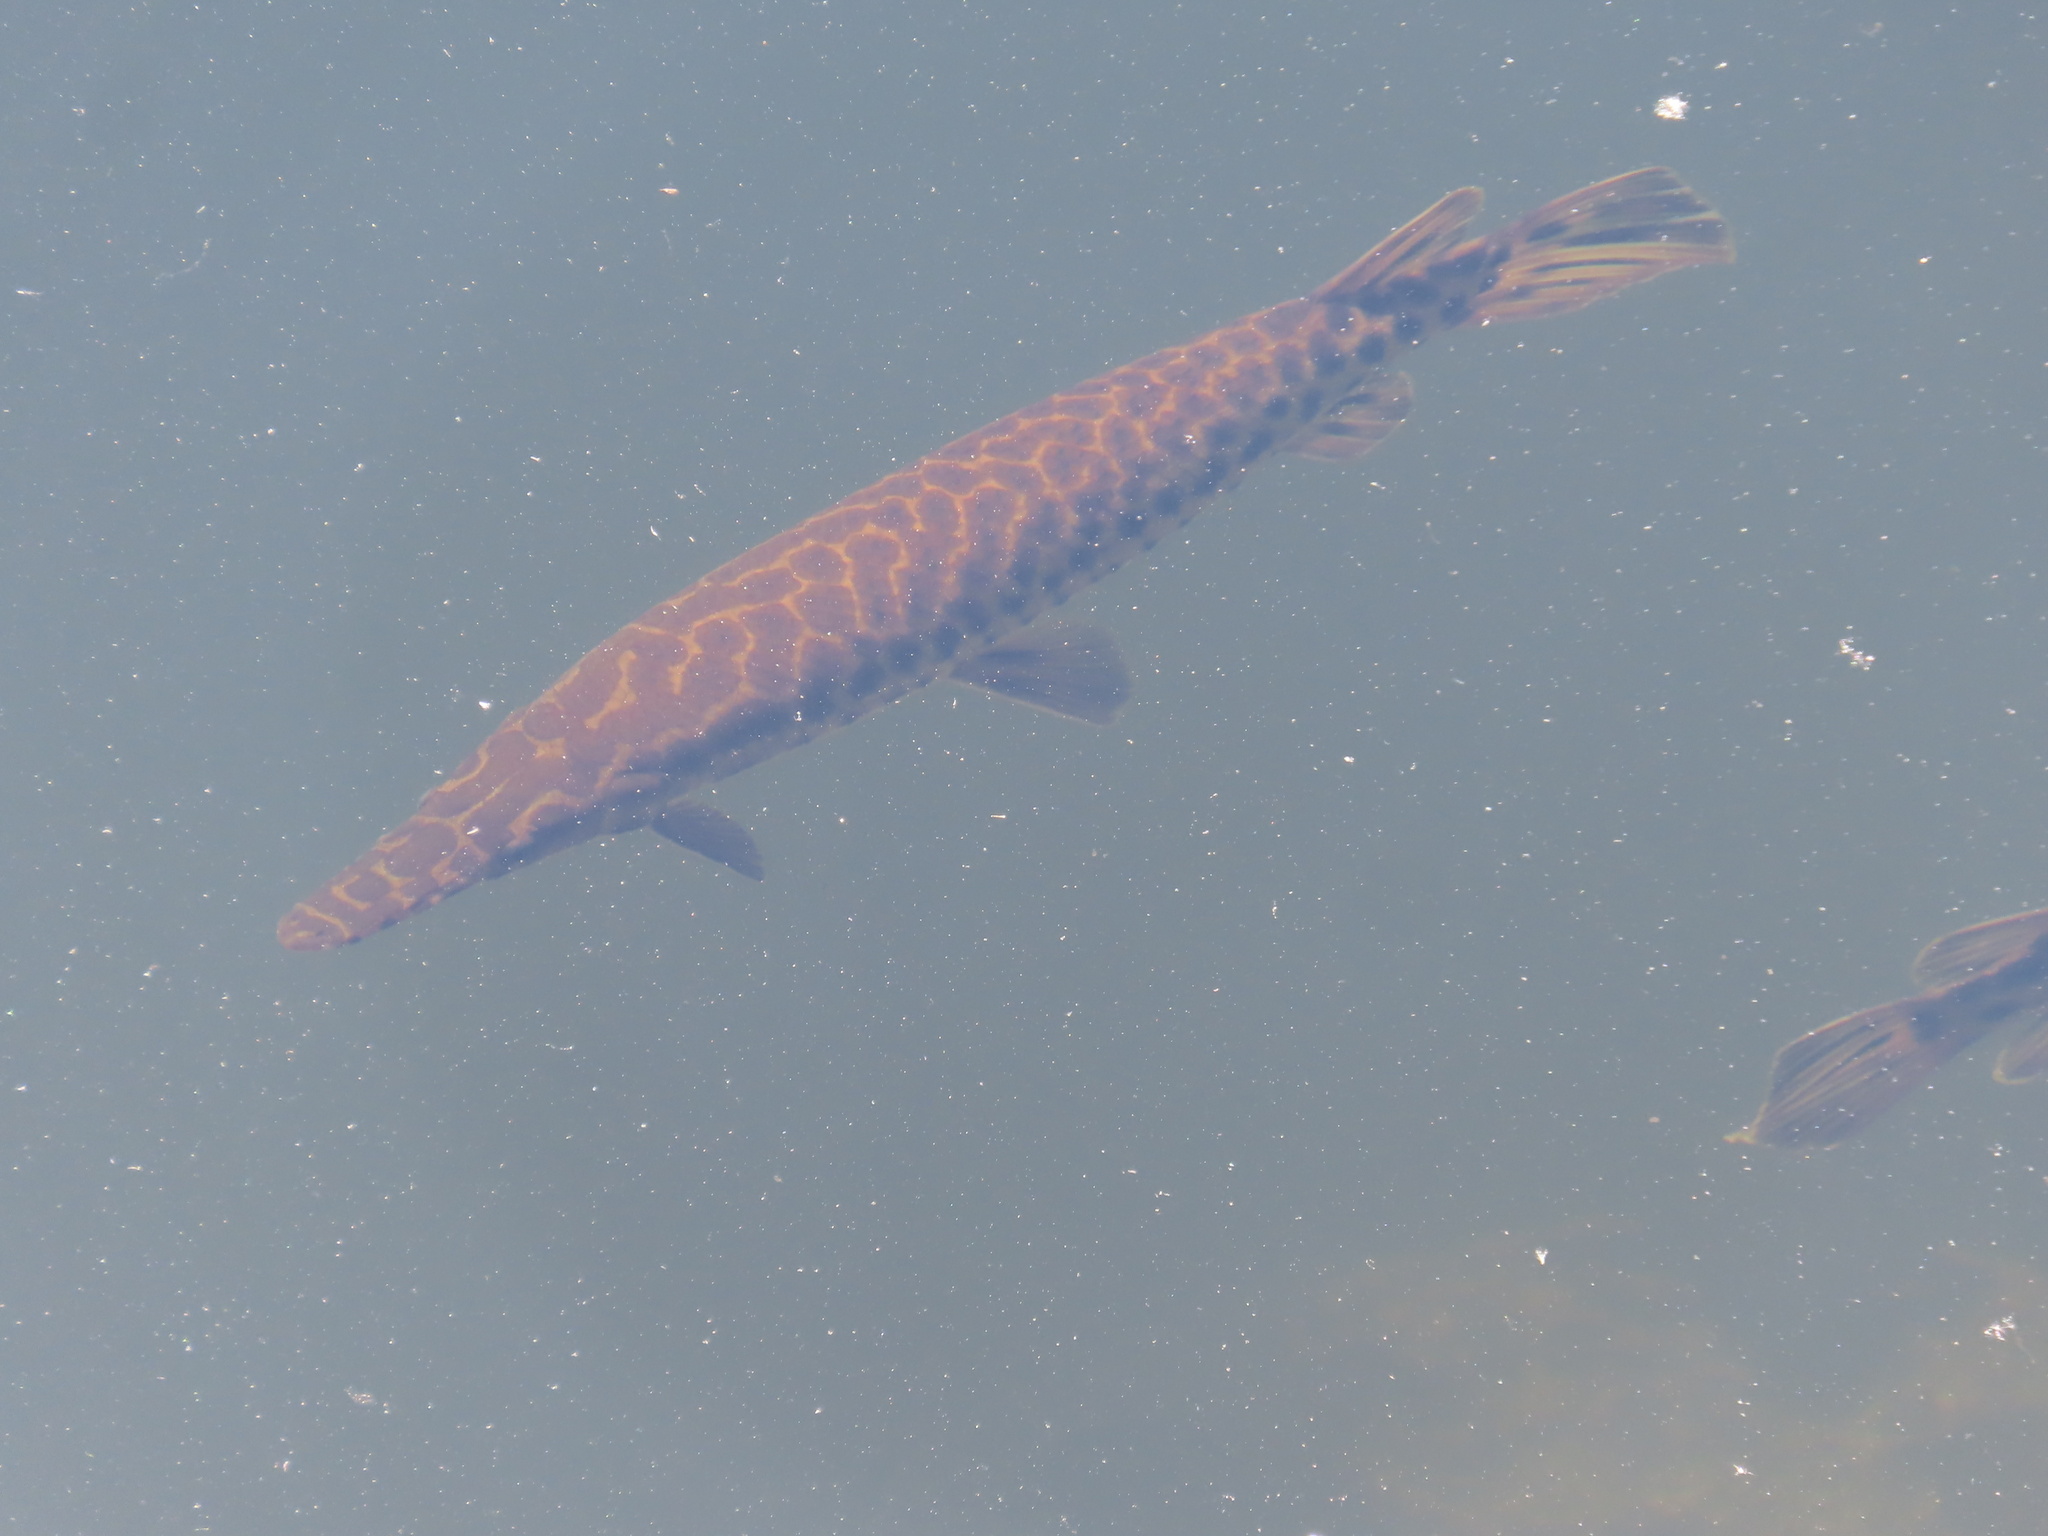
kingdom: Animalia
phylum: Chordata
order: Lepisosteiformes
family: Lepisosteidae
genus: Lepisosteus
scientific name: Lepisosteus platyrhincus
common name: Florida gar
